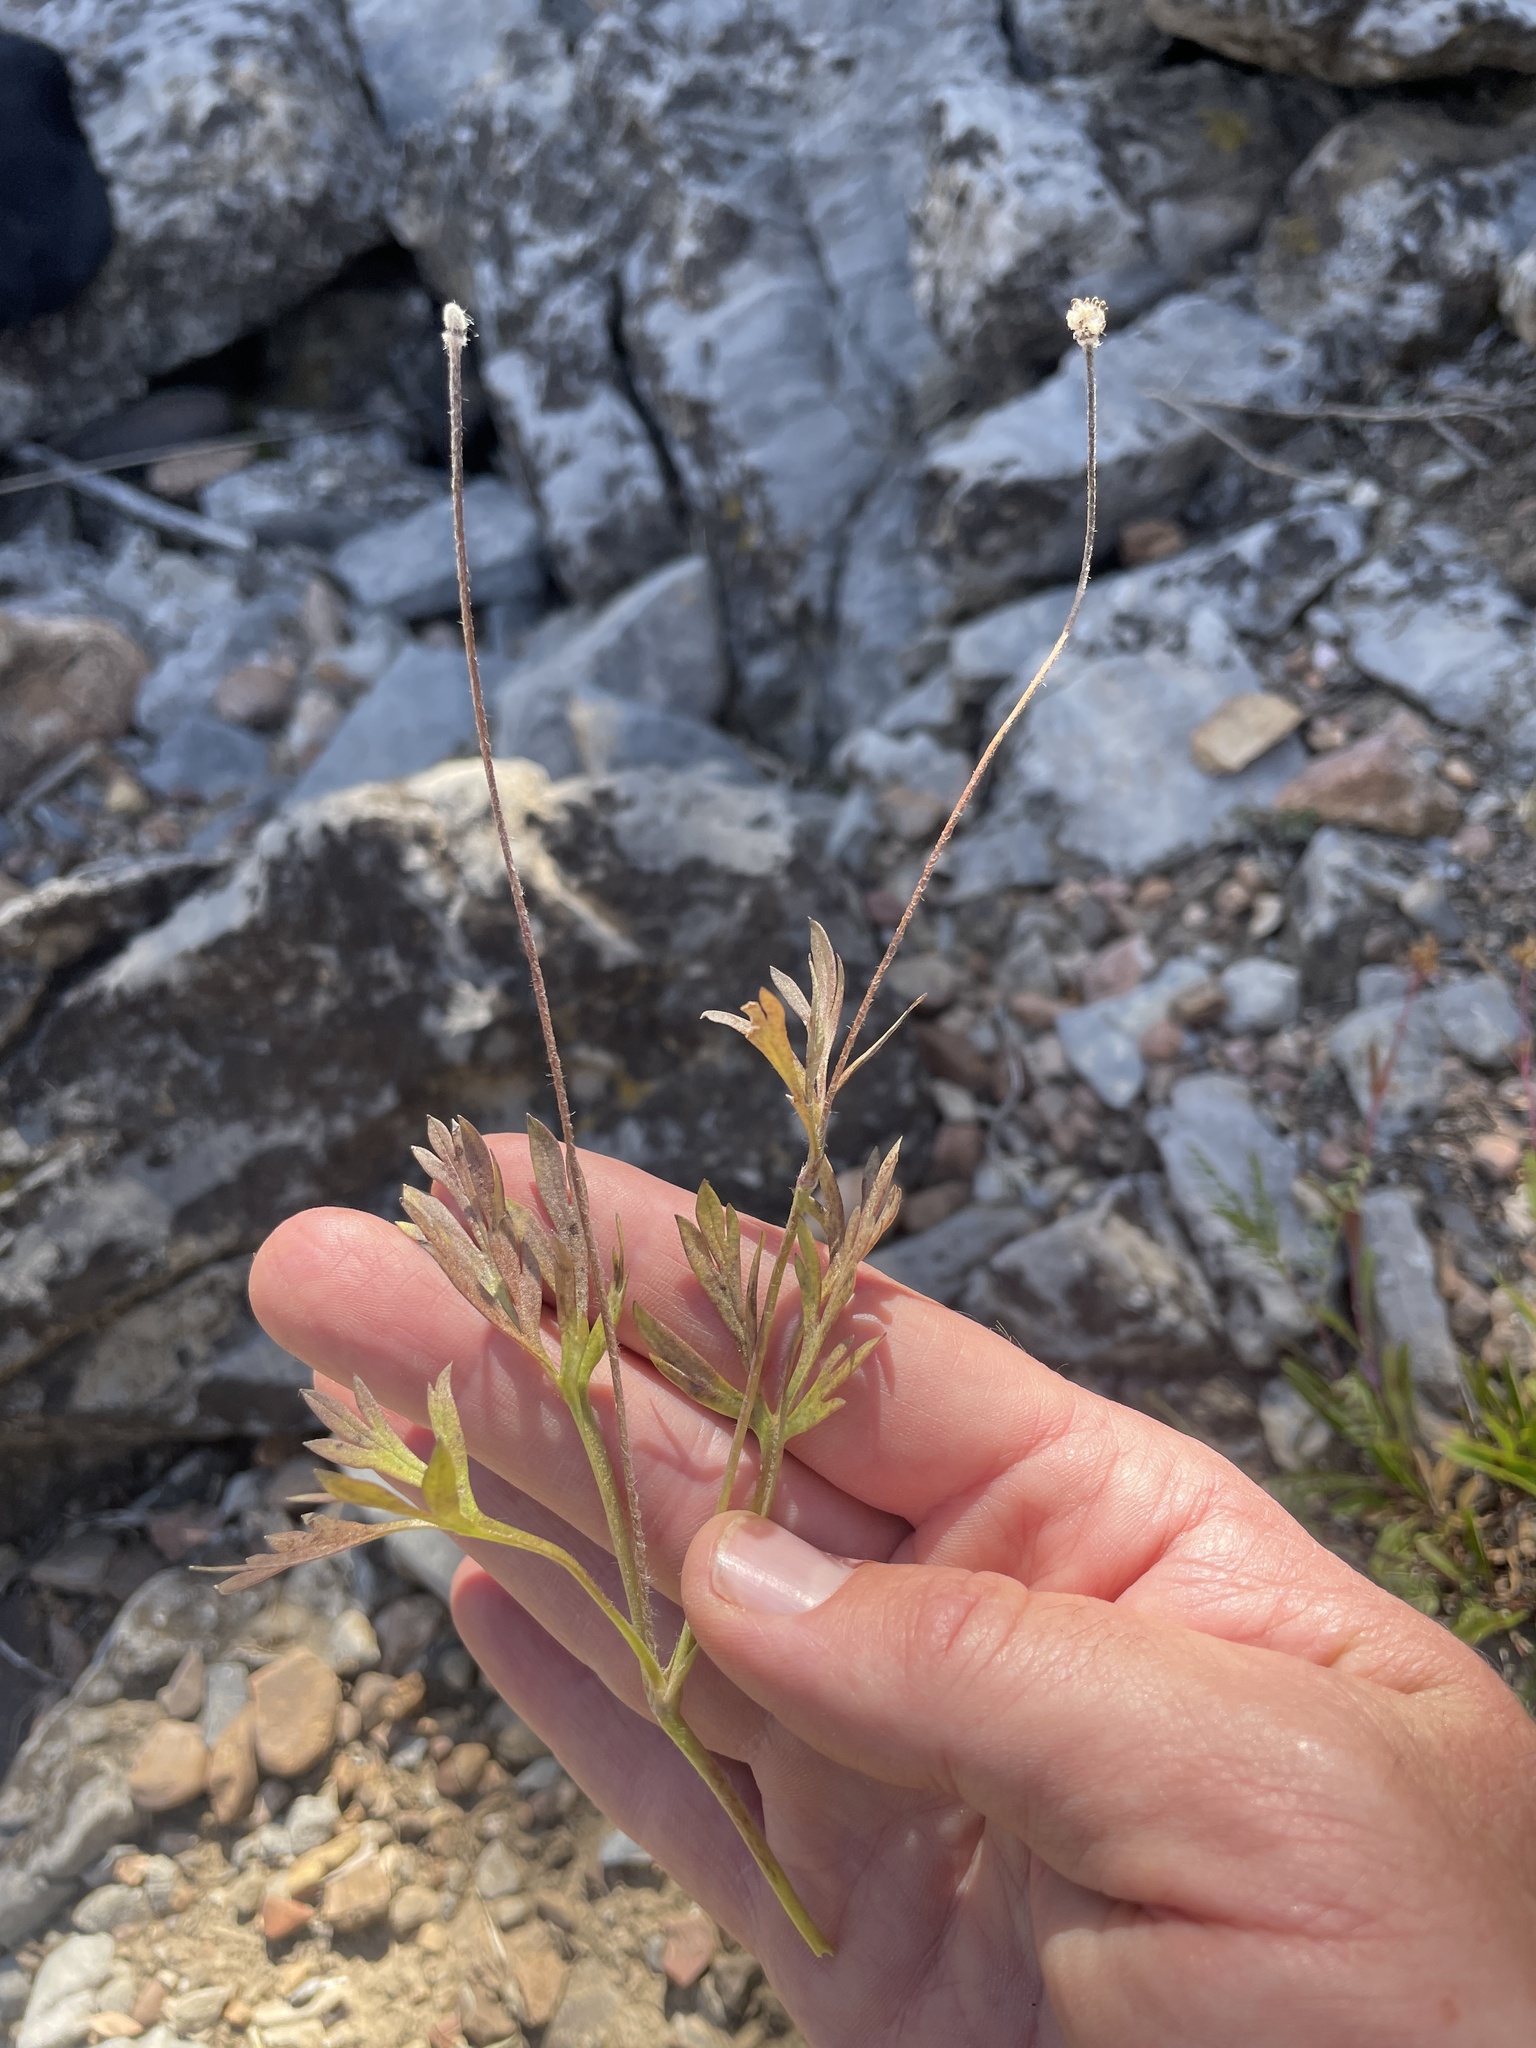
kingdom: Plantae
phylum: Tracheophyta
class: Magnoliopsida
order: Ranunculales
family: Ranunculaceae
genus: Anemone
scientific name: Anemone multifida
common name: Bird's-foot anemone
